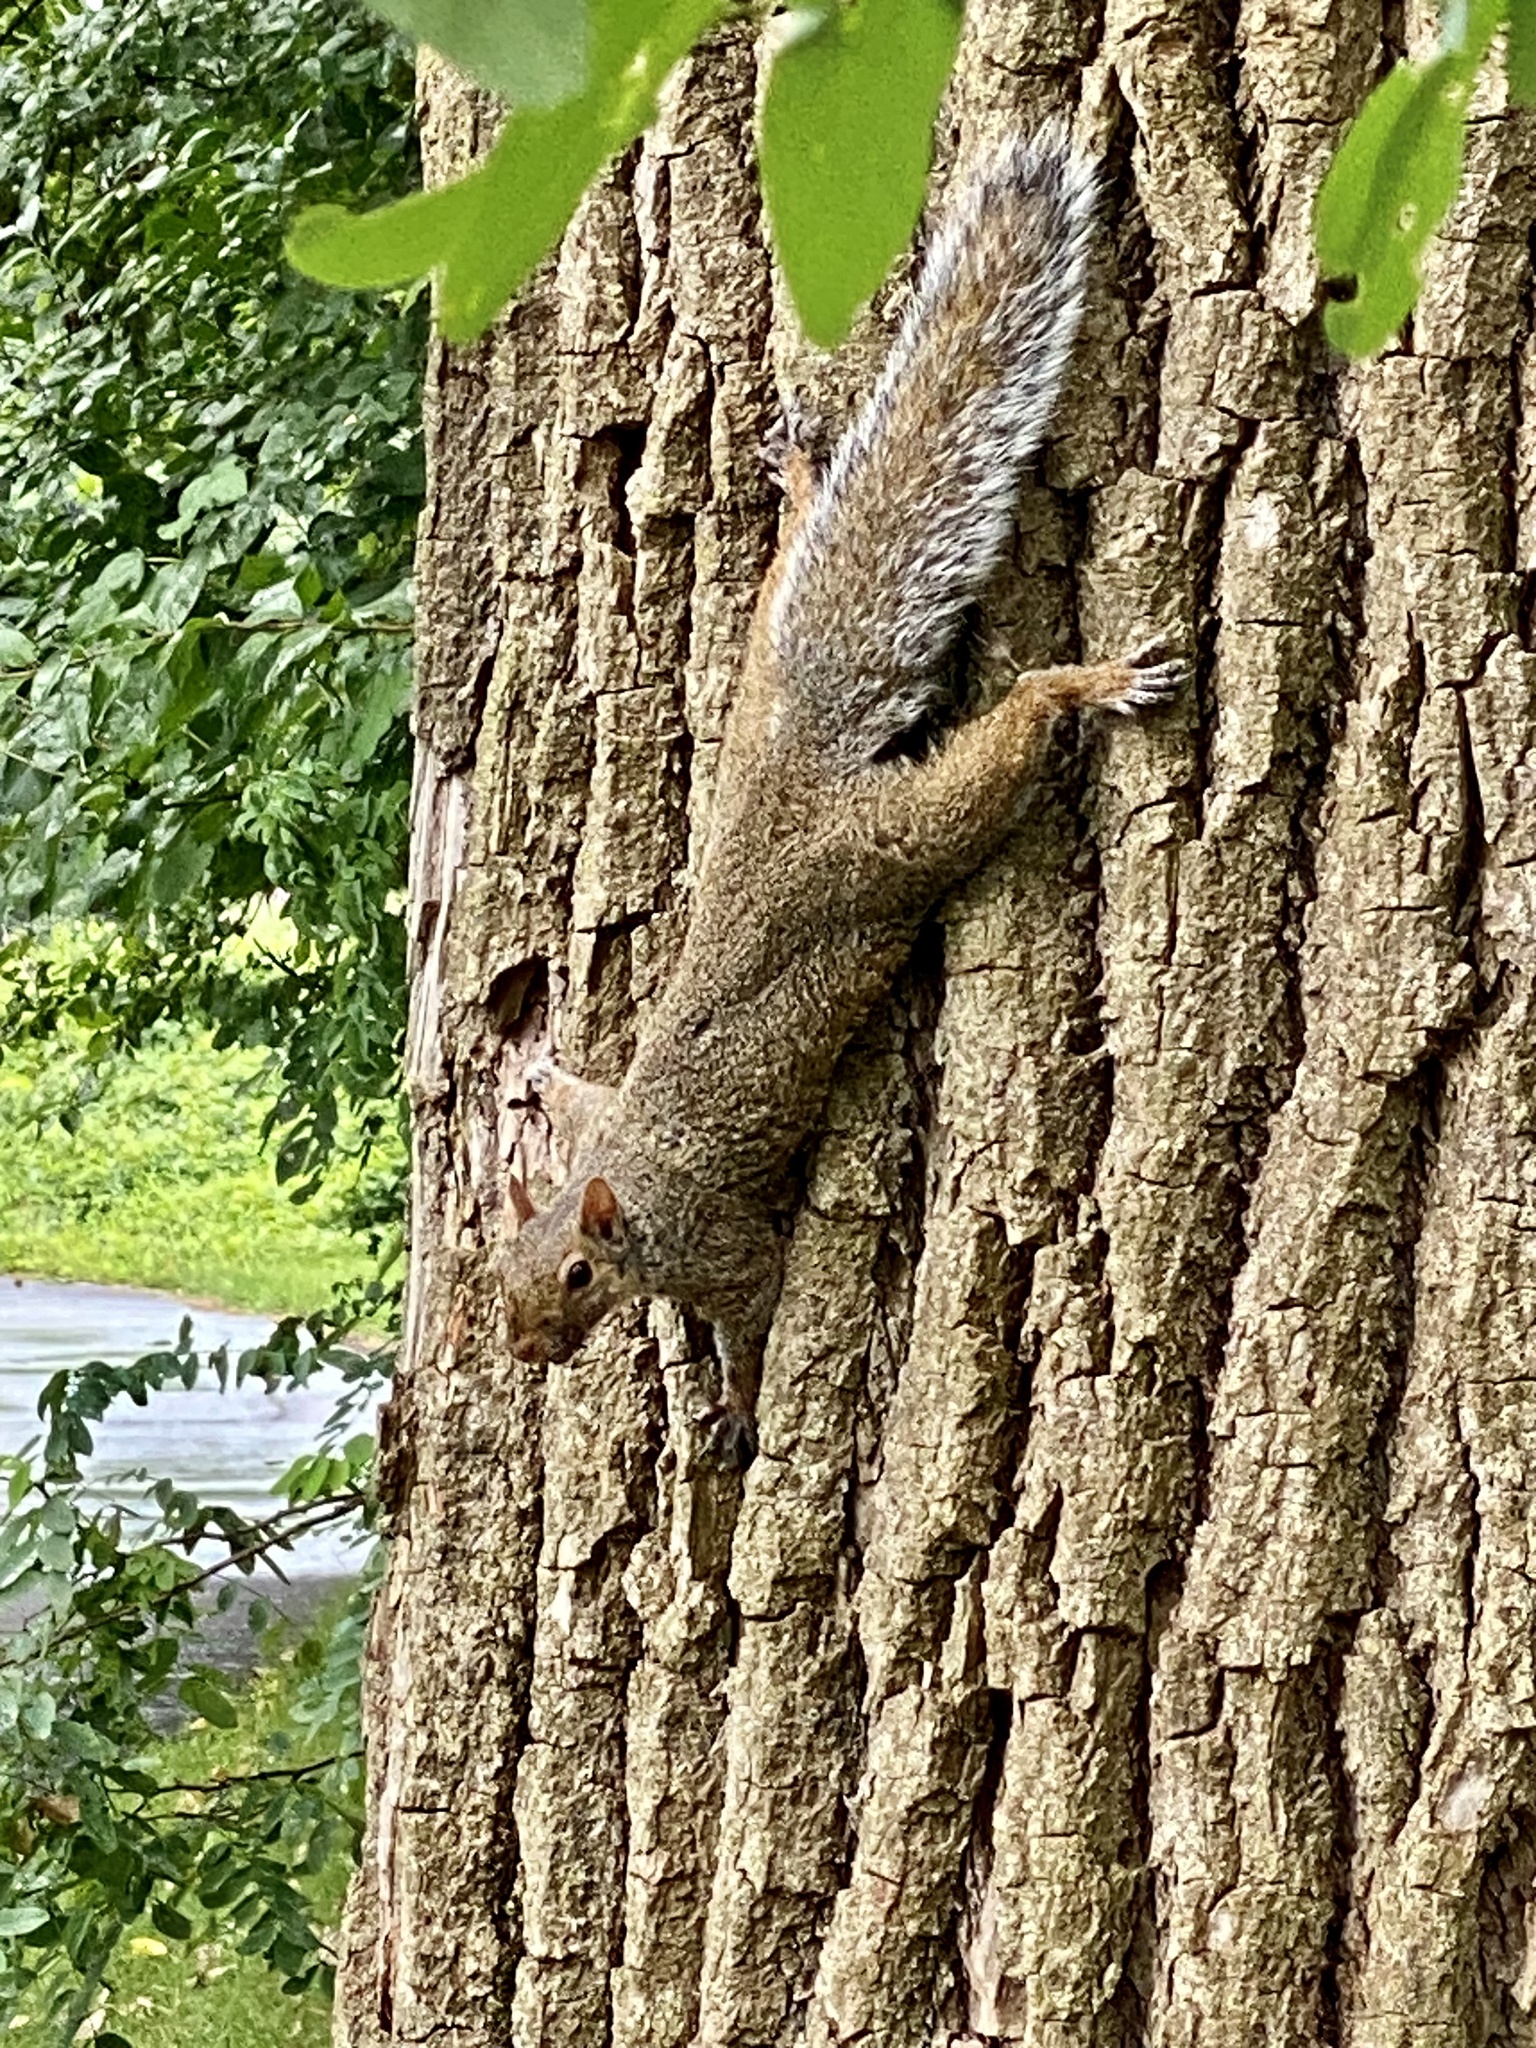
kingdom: Animalia
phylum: Chordata
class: Mammalia
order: Rodentia
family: Sciuridae
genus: Sciurus
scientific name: Sciurus carolinensis
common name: Eastern gray squirrel
